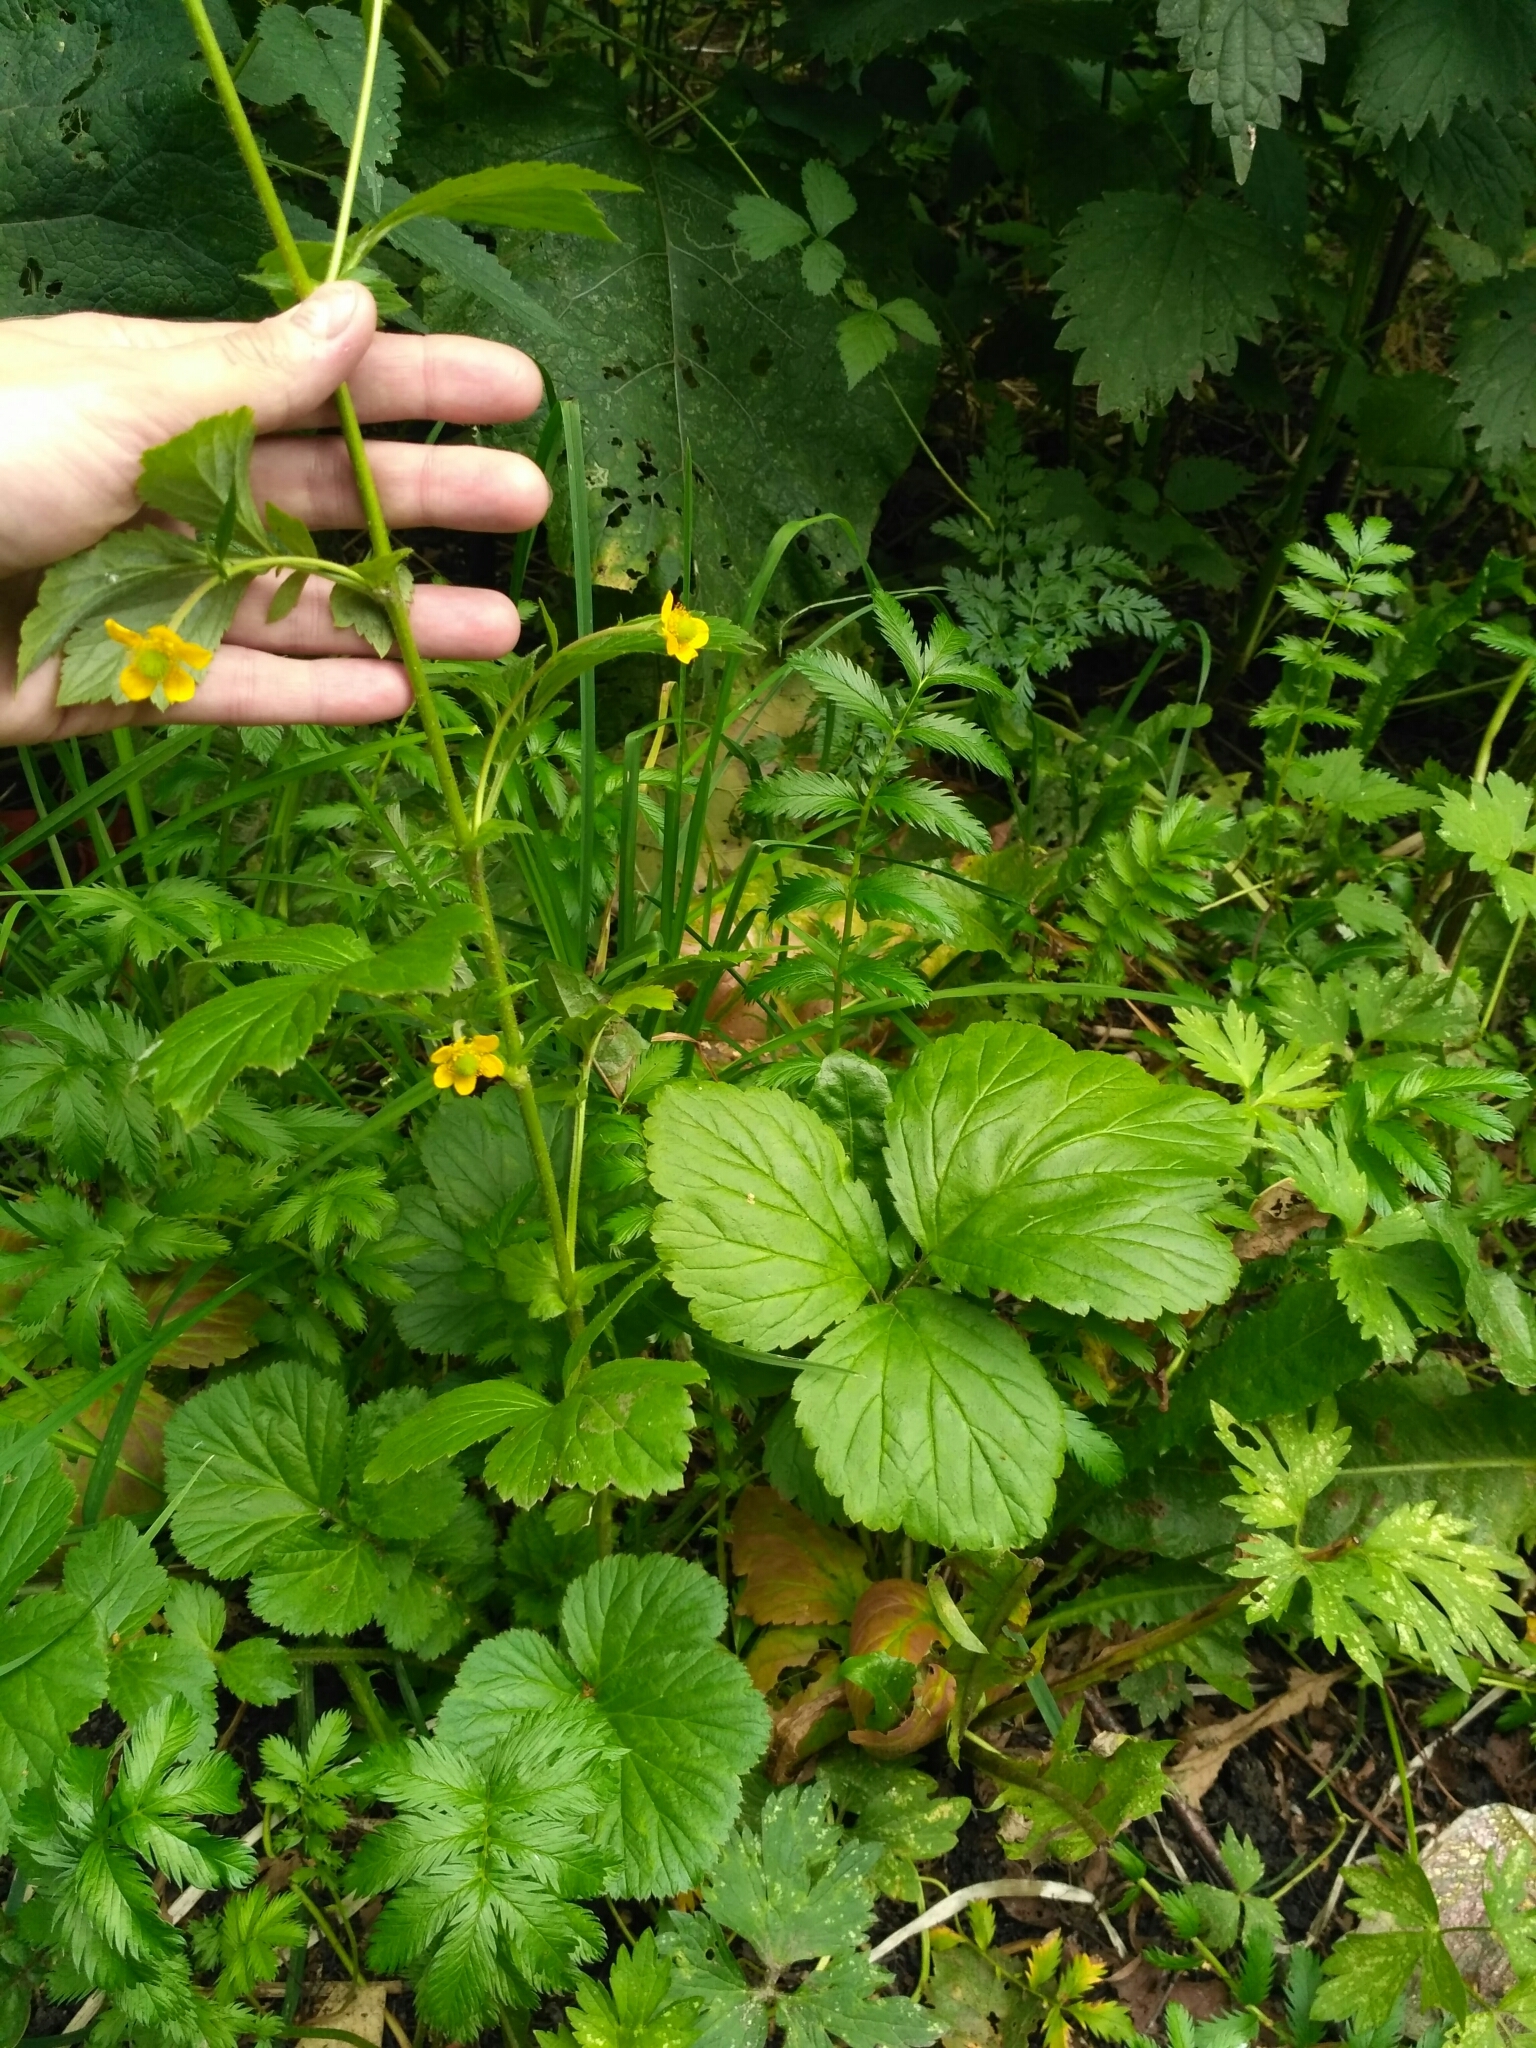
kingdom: Plantae
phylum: Tracheophyta
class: Magnoliopsida
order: Rosales
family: Rosaceae
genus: Geum
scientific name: Geum urbanum
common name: Wood avens
